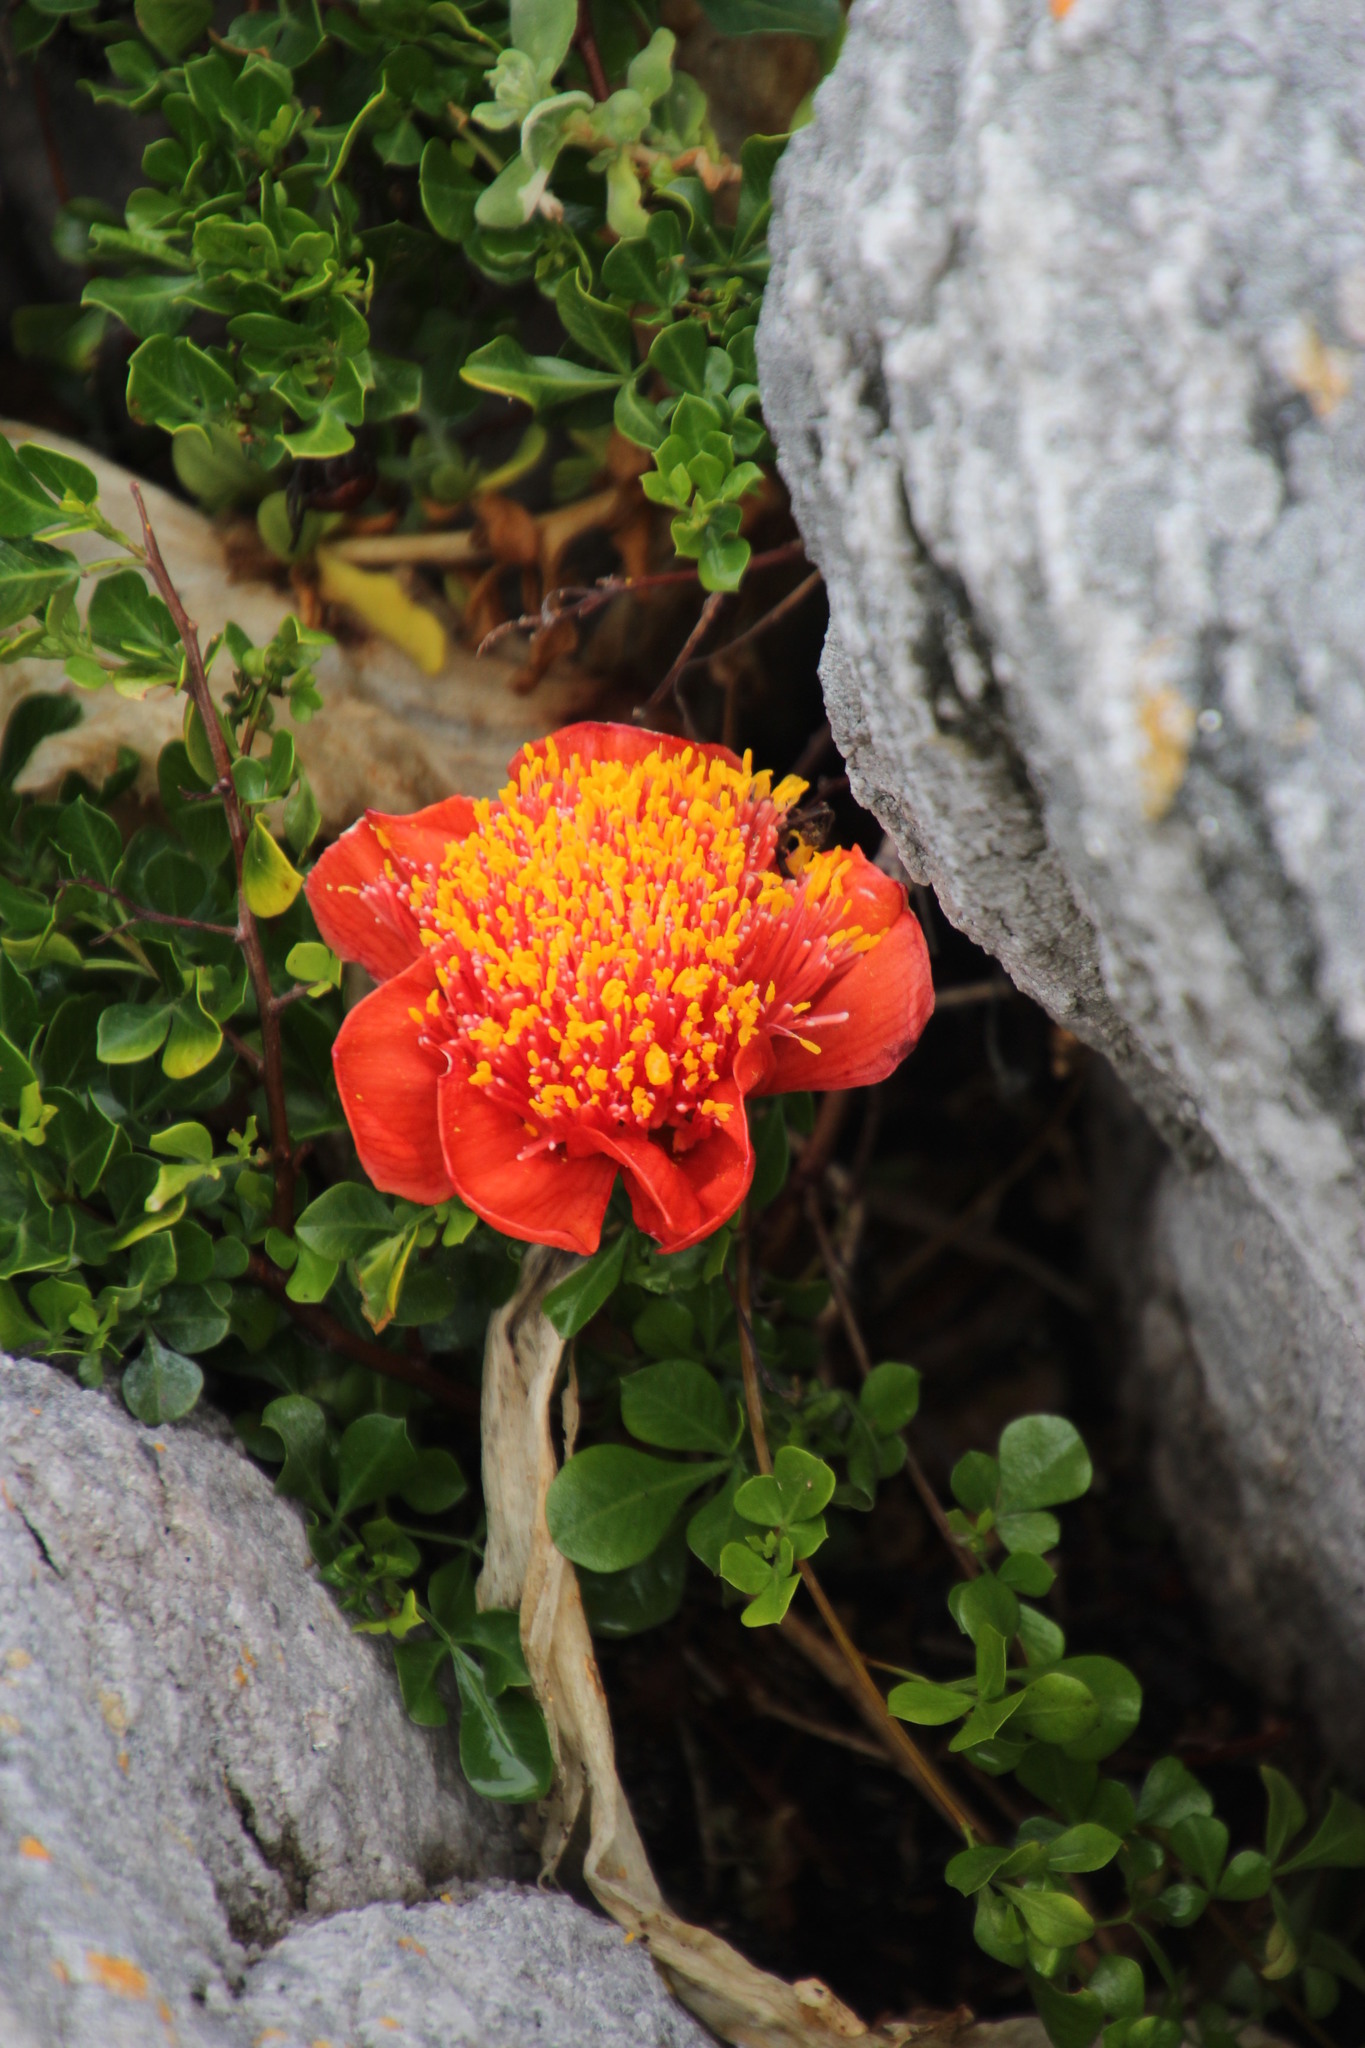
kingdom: Plantae
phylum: Tracheophyta
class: Liliopsida
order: Asparagales
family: Amaryllidaceae
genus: Haemanthus
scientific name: Haemanthus coccineus
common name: Cape-tulip
